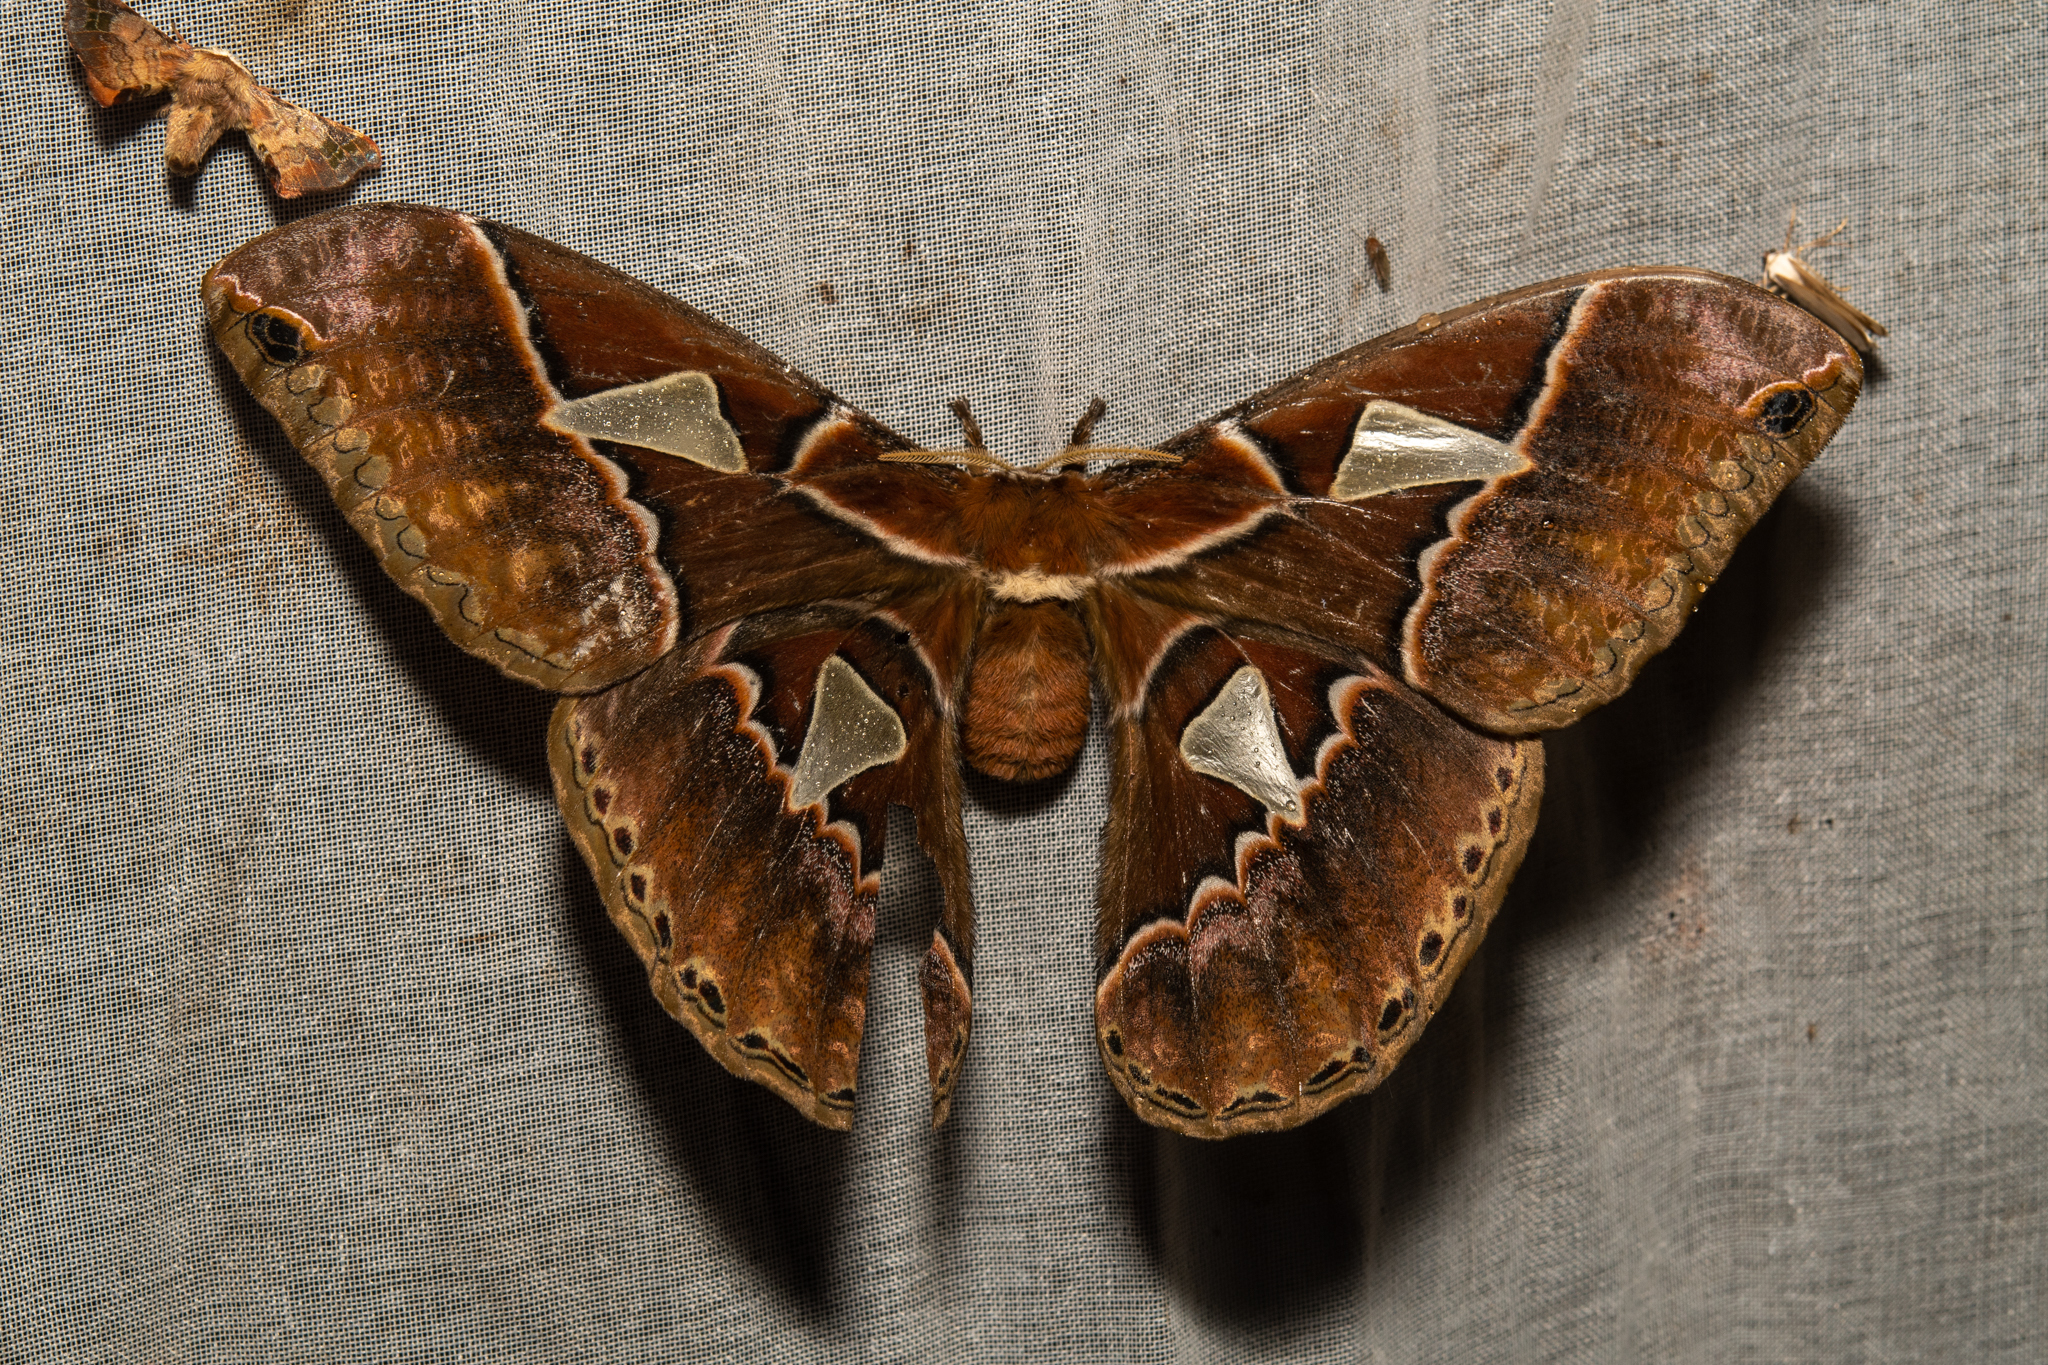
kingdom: Animalia
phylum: Arthropoda
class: Insecta
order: Lepidoptera
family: Saturniidae
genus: Rothschildia
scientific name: Rothschildia orizaba
